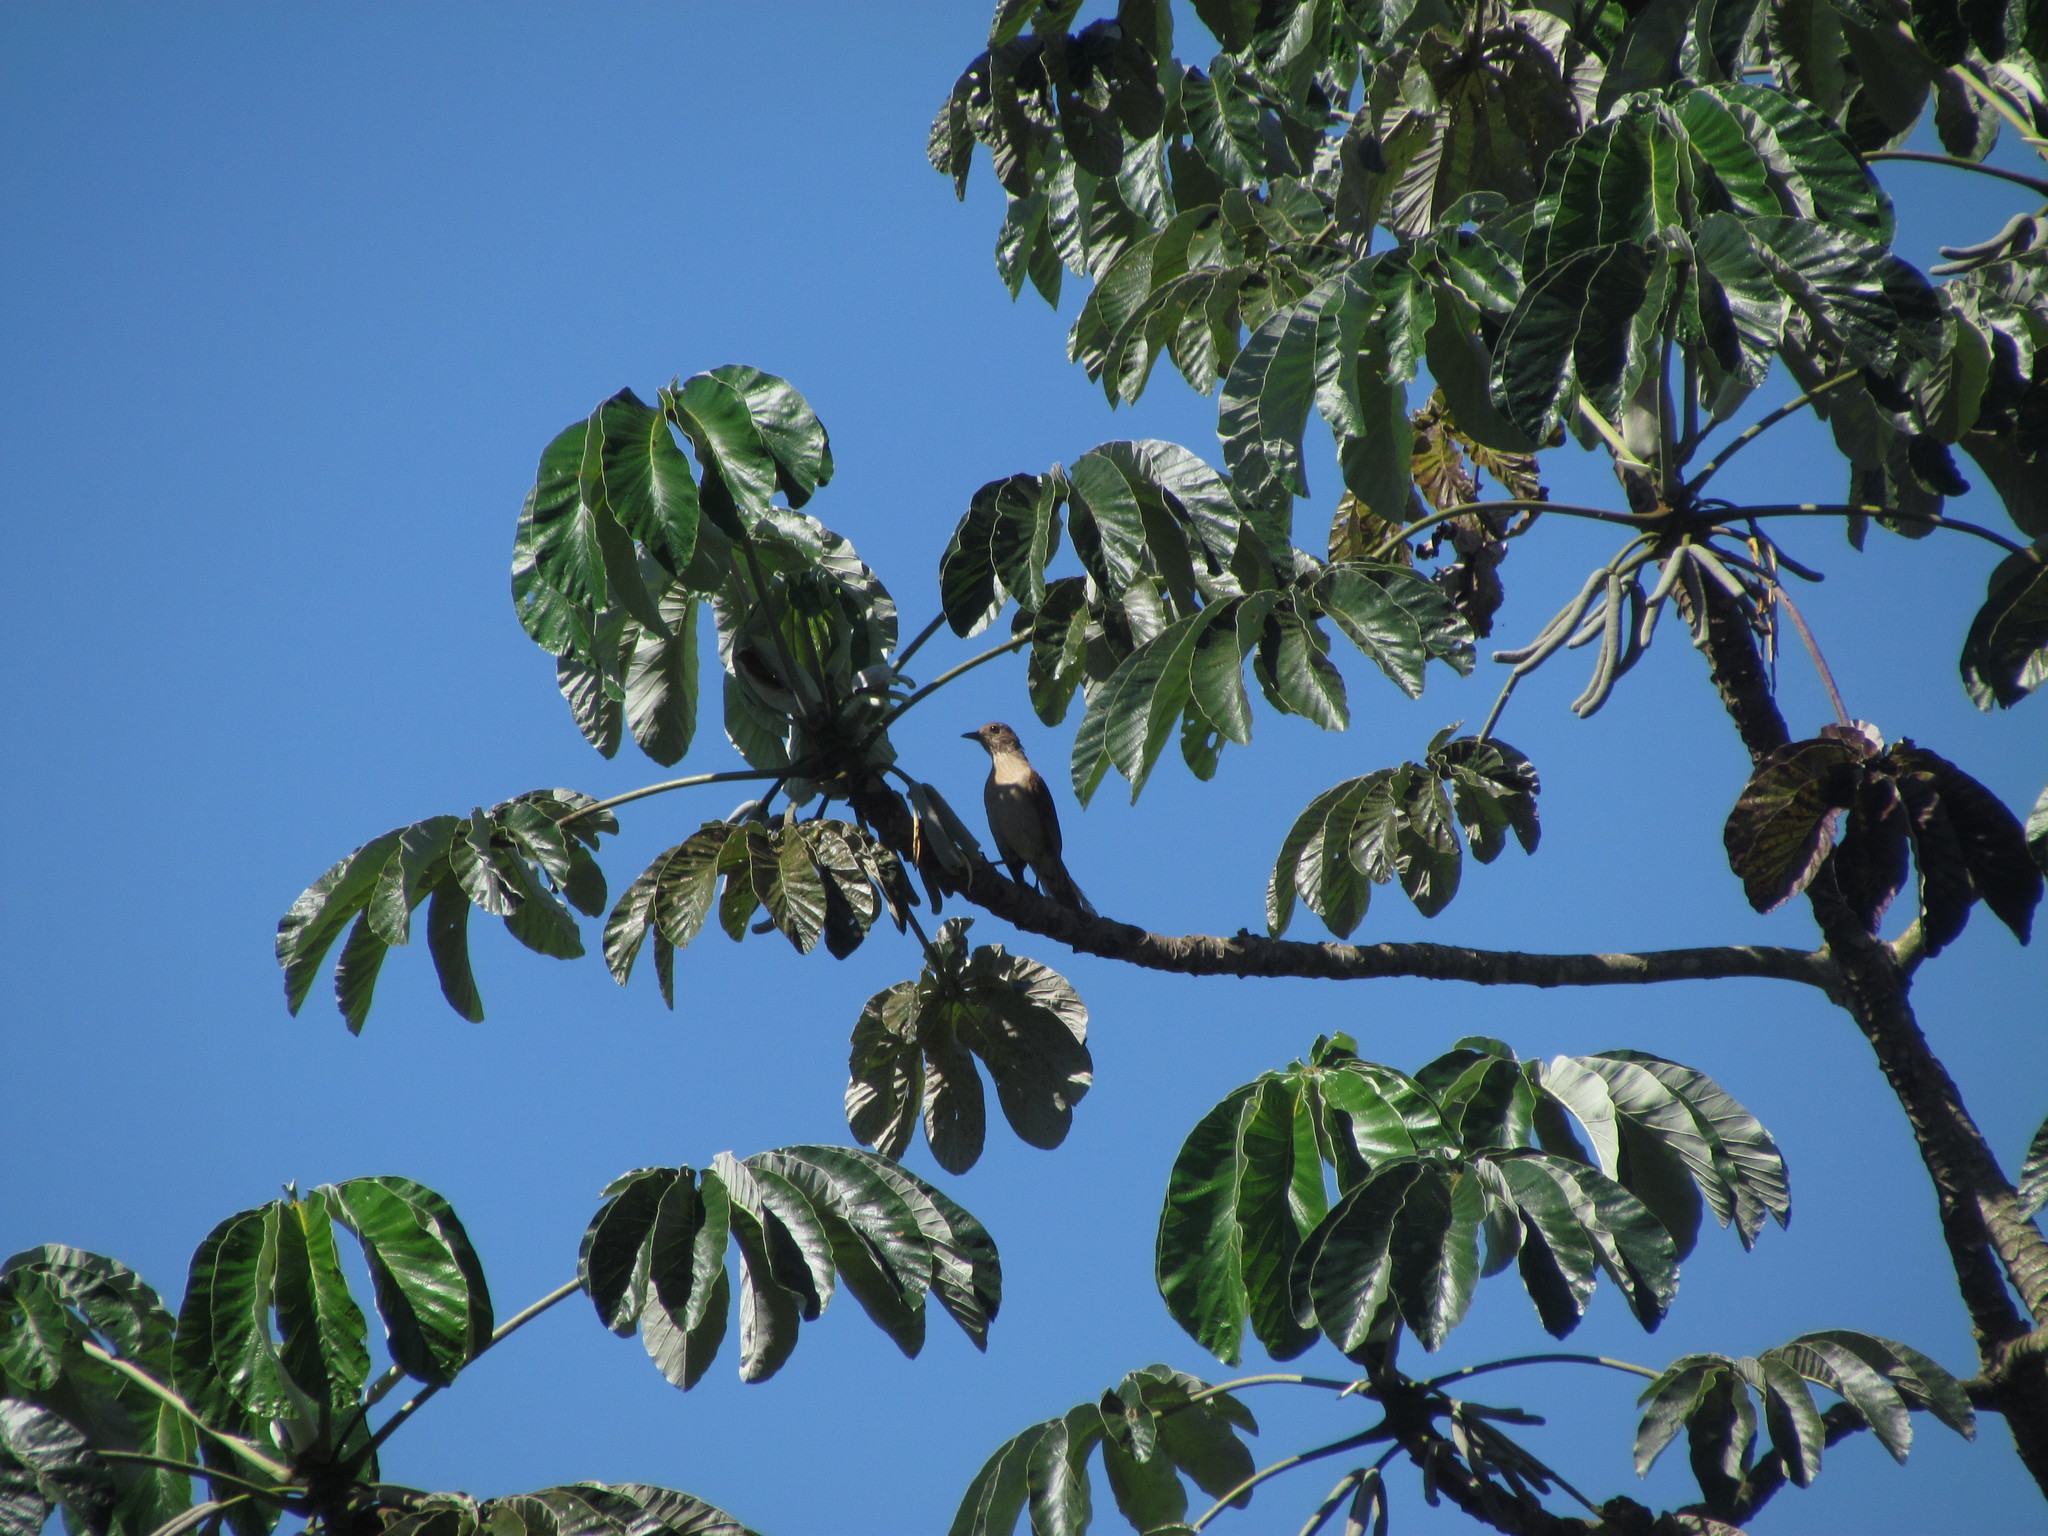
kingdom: Animalia
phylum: Chordata
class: Aves
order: Passeriformes
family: Turdidae
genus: Turdus
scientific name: Turdus leucomelas
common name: Pale-breasted thrush
